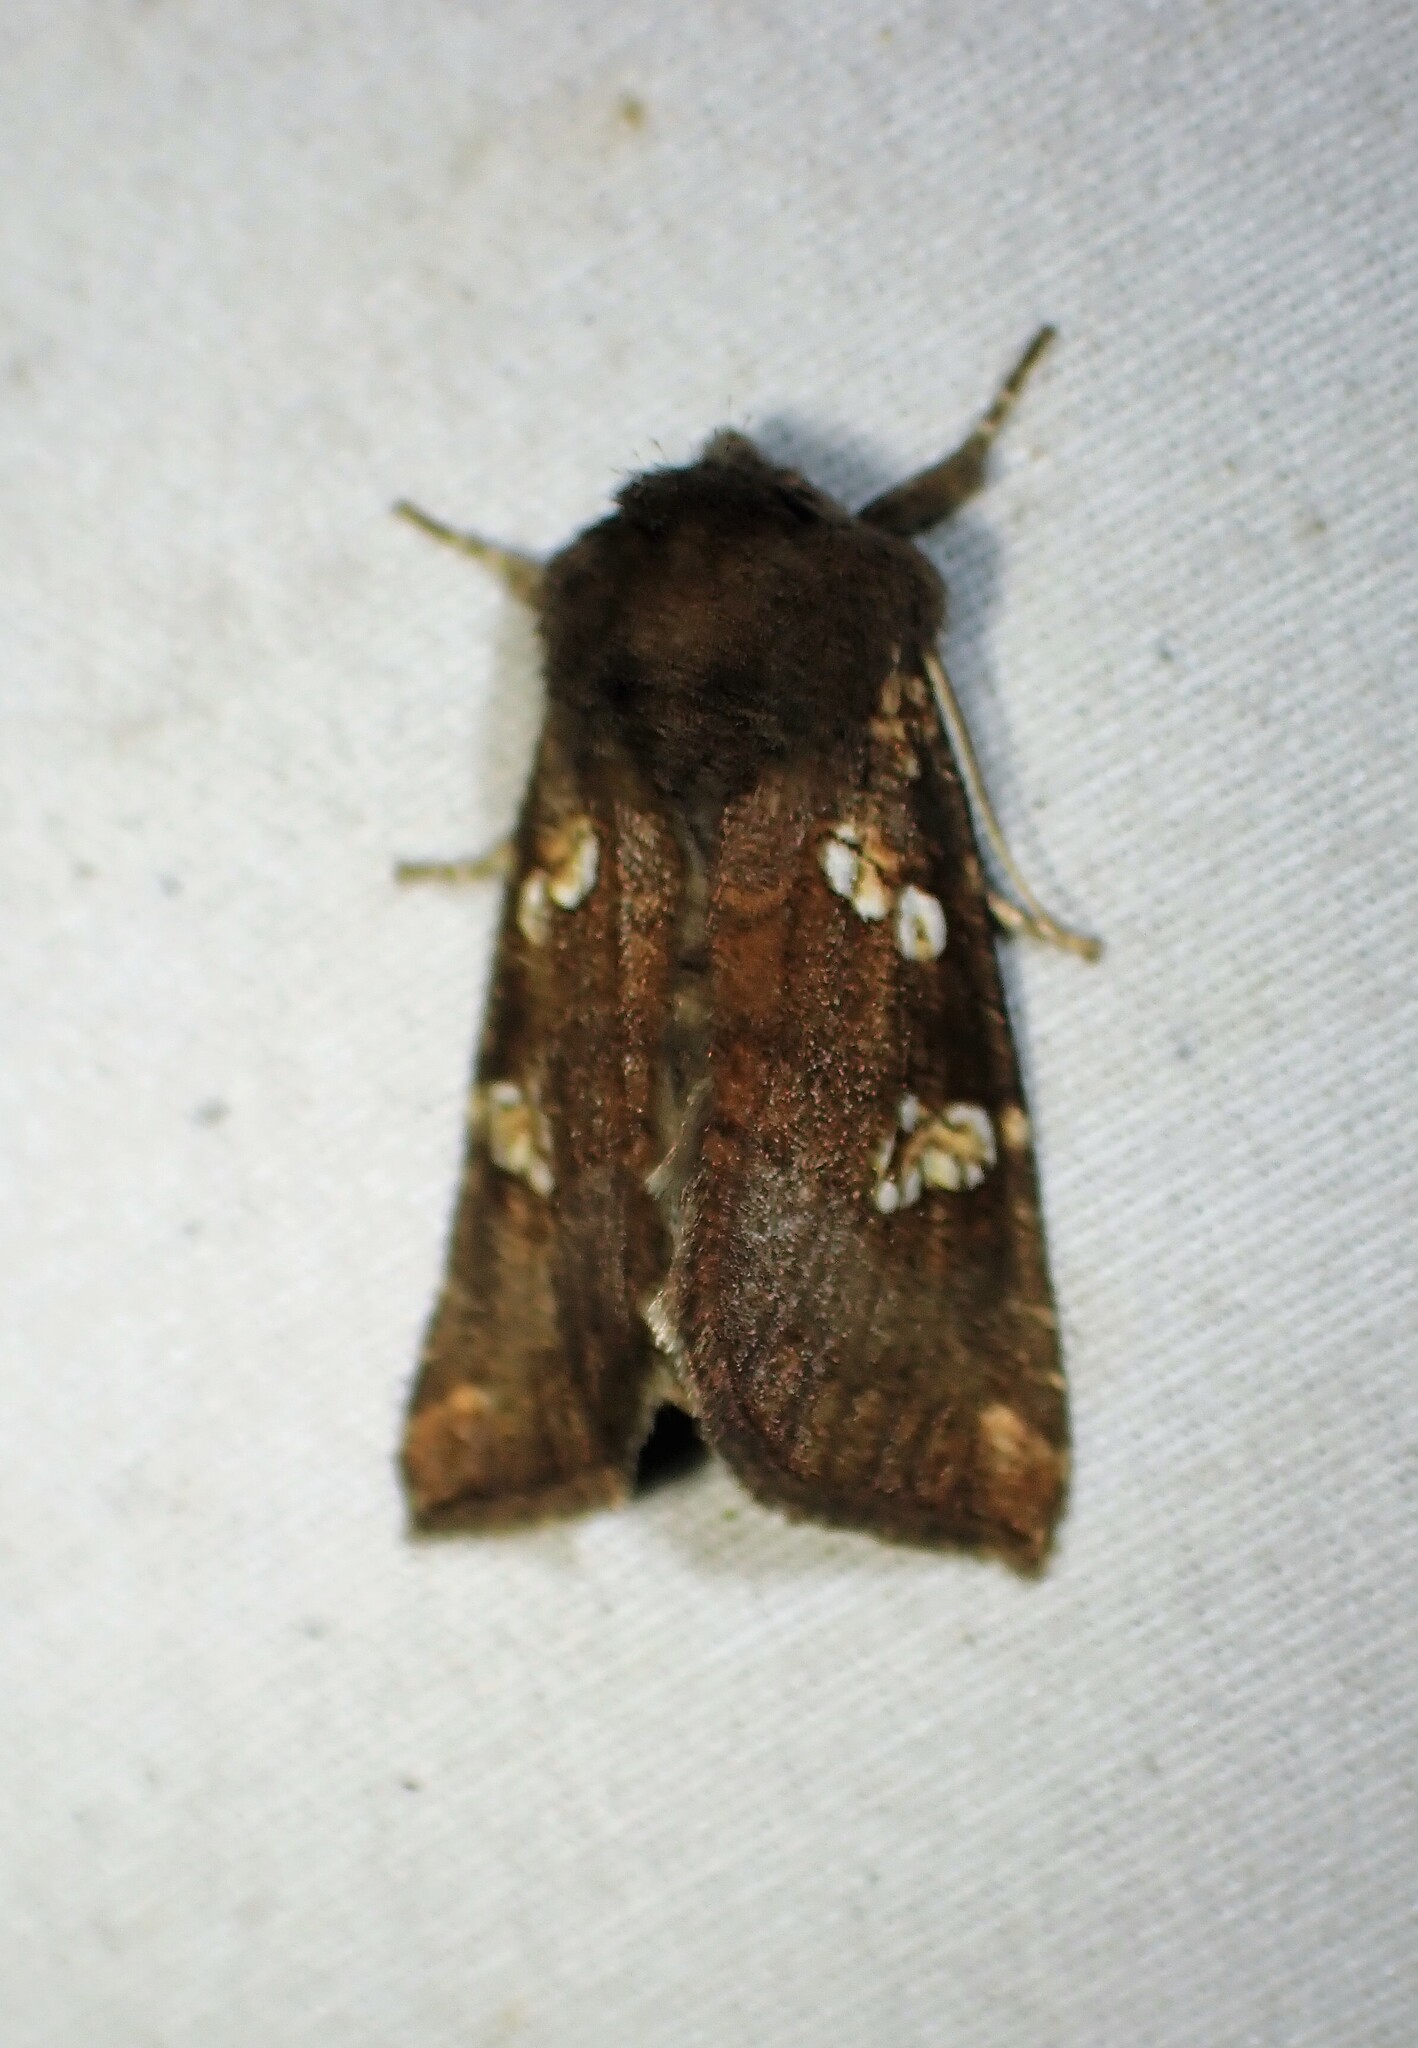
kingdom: Animalia
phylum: Arthropoda
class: Insecta
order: Lepidoptera
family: Noctuidae
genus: Papaipema
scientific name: Papaipema unimoda
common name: Meadow rue borer moth
